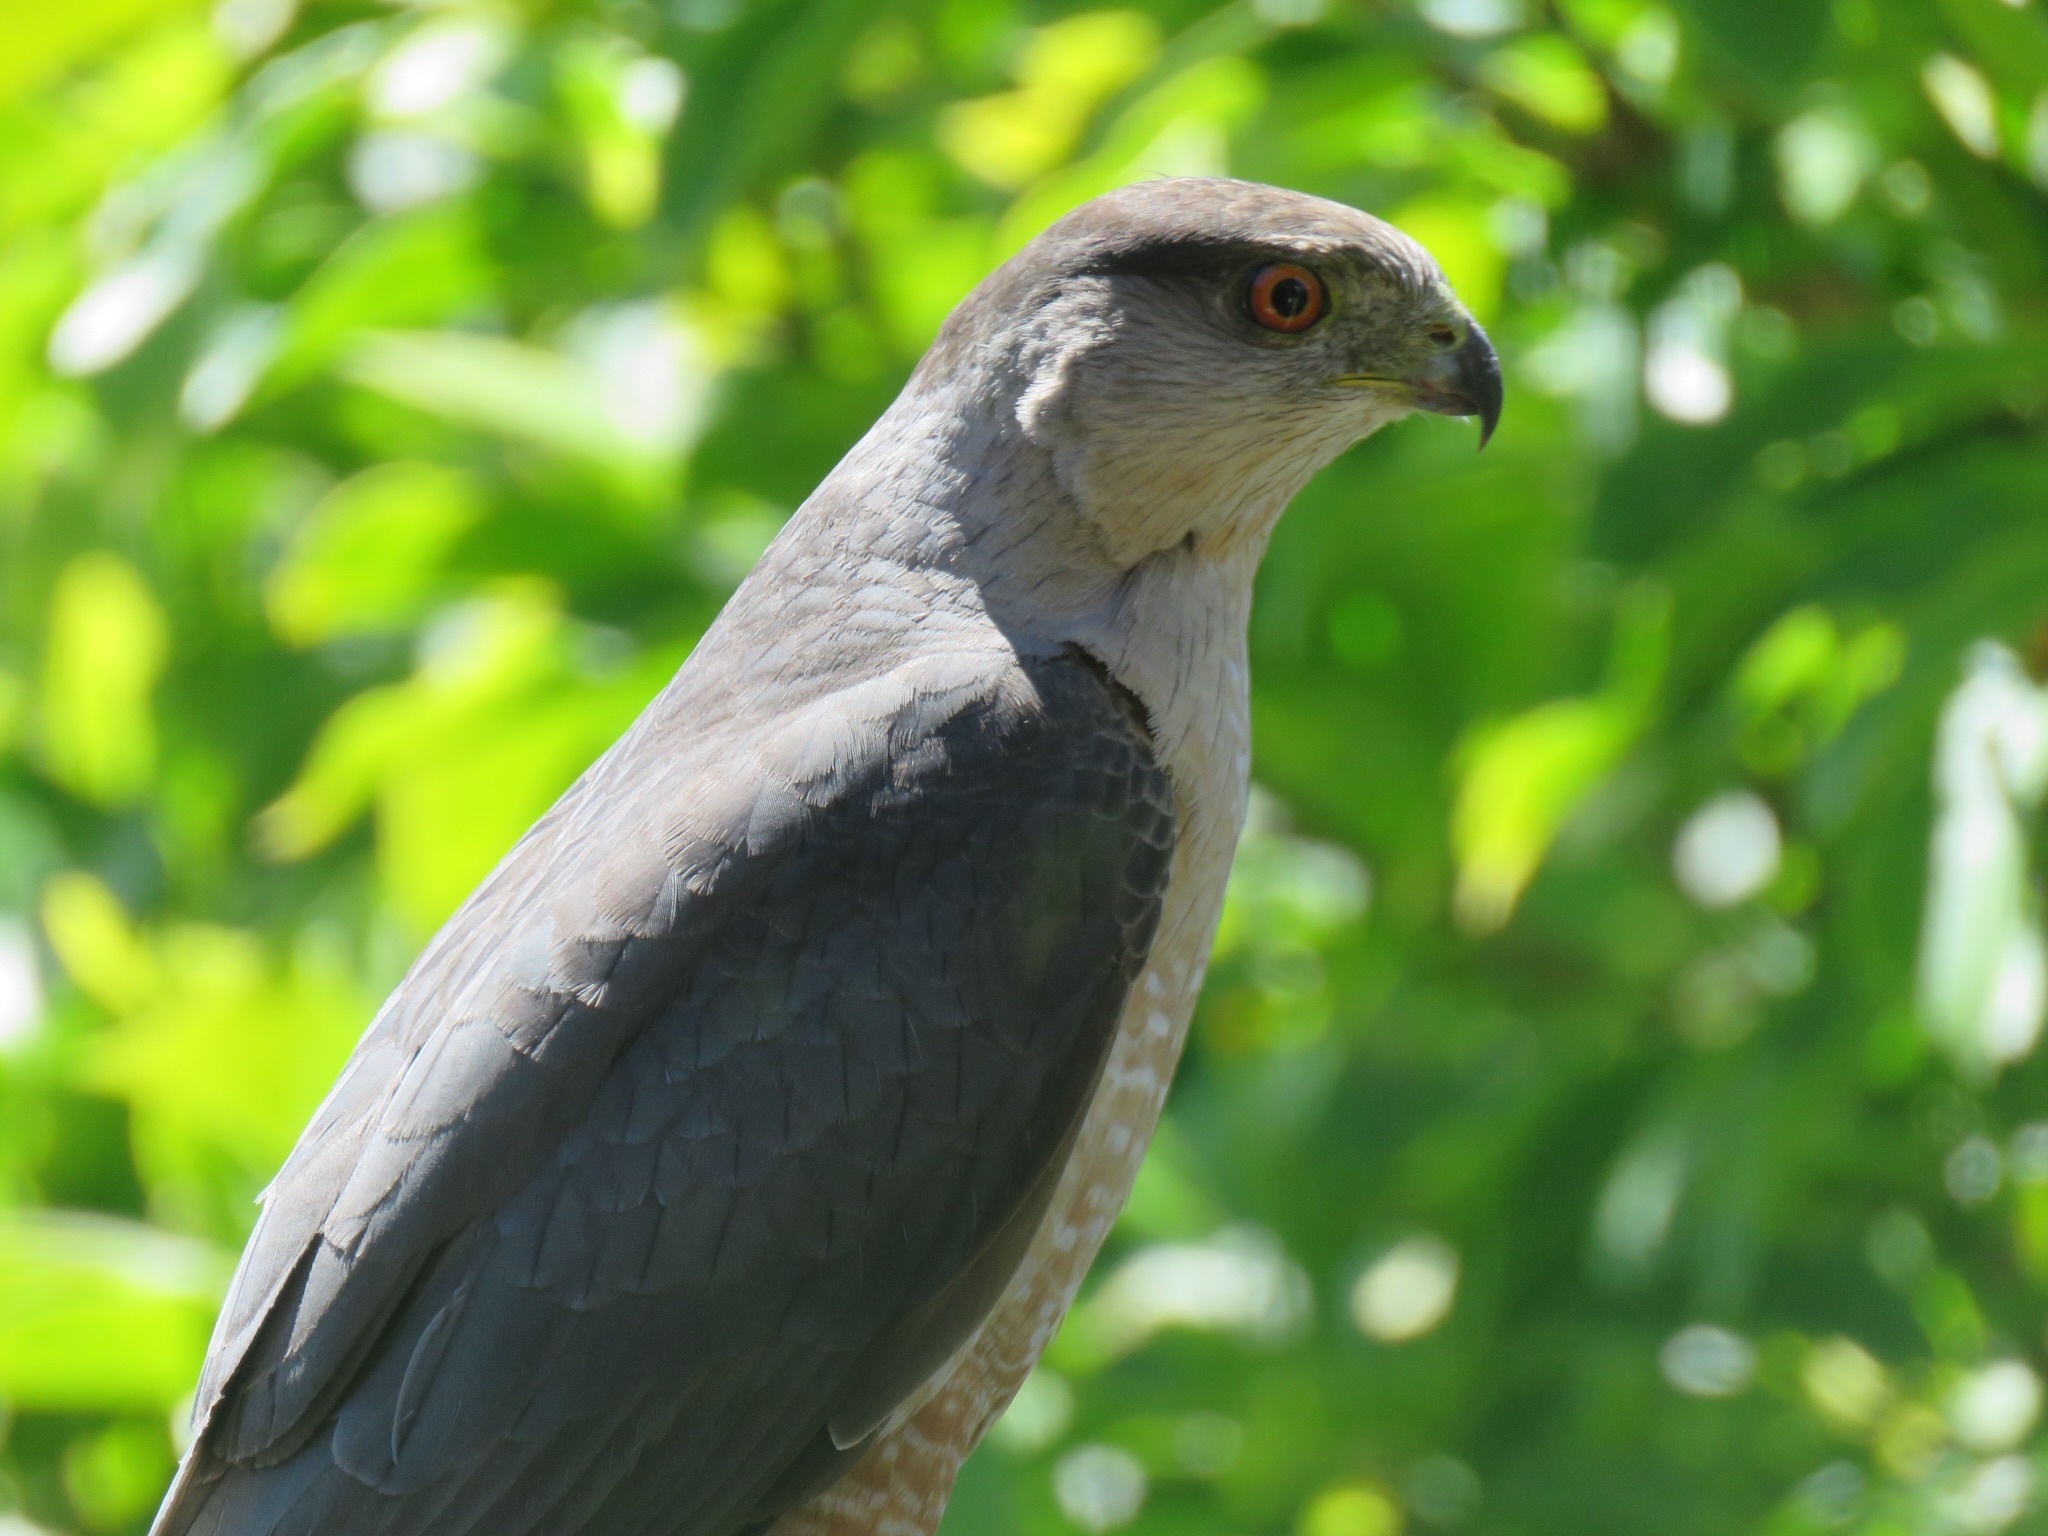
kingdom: Animalia
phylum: Chordata
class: Aves
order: Accipitriformes
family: Accipitridae
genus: Accipiter
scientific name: Accipiter cooperii
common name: Cooper's hawk
